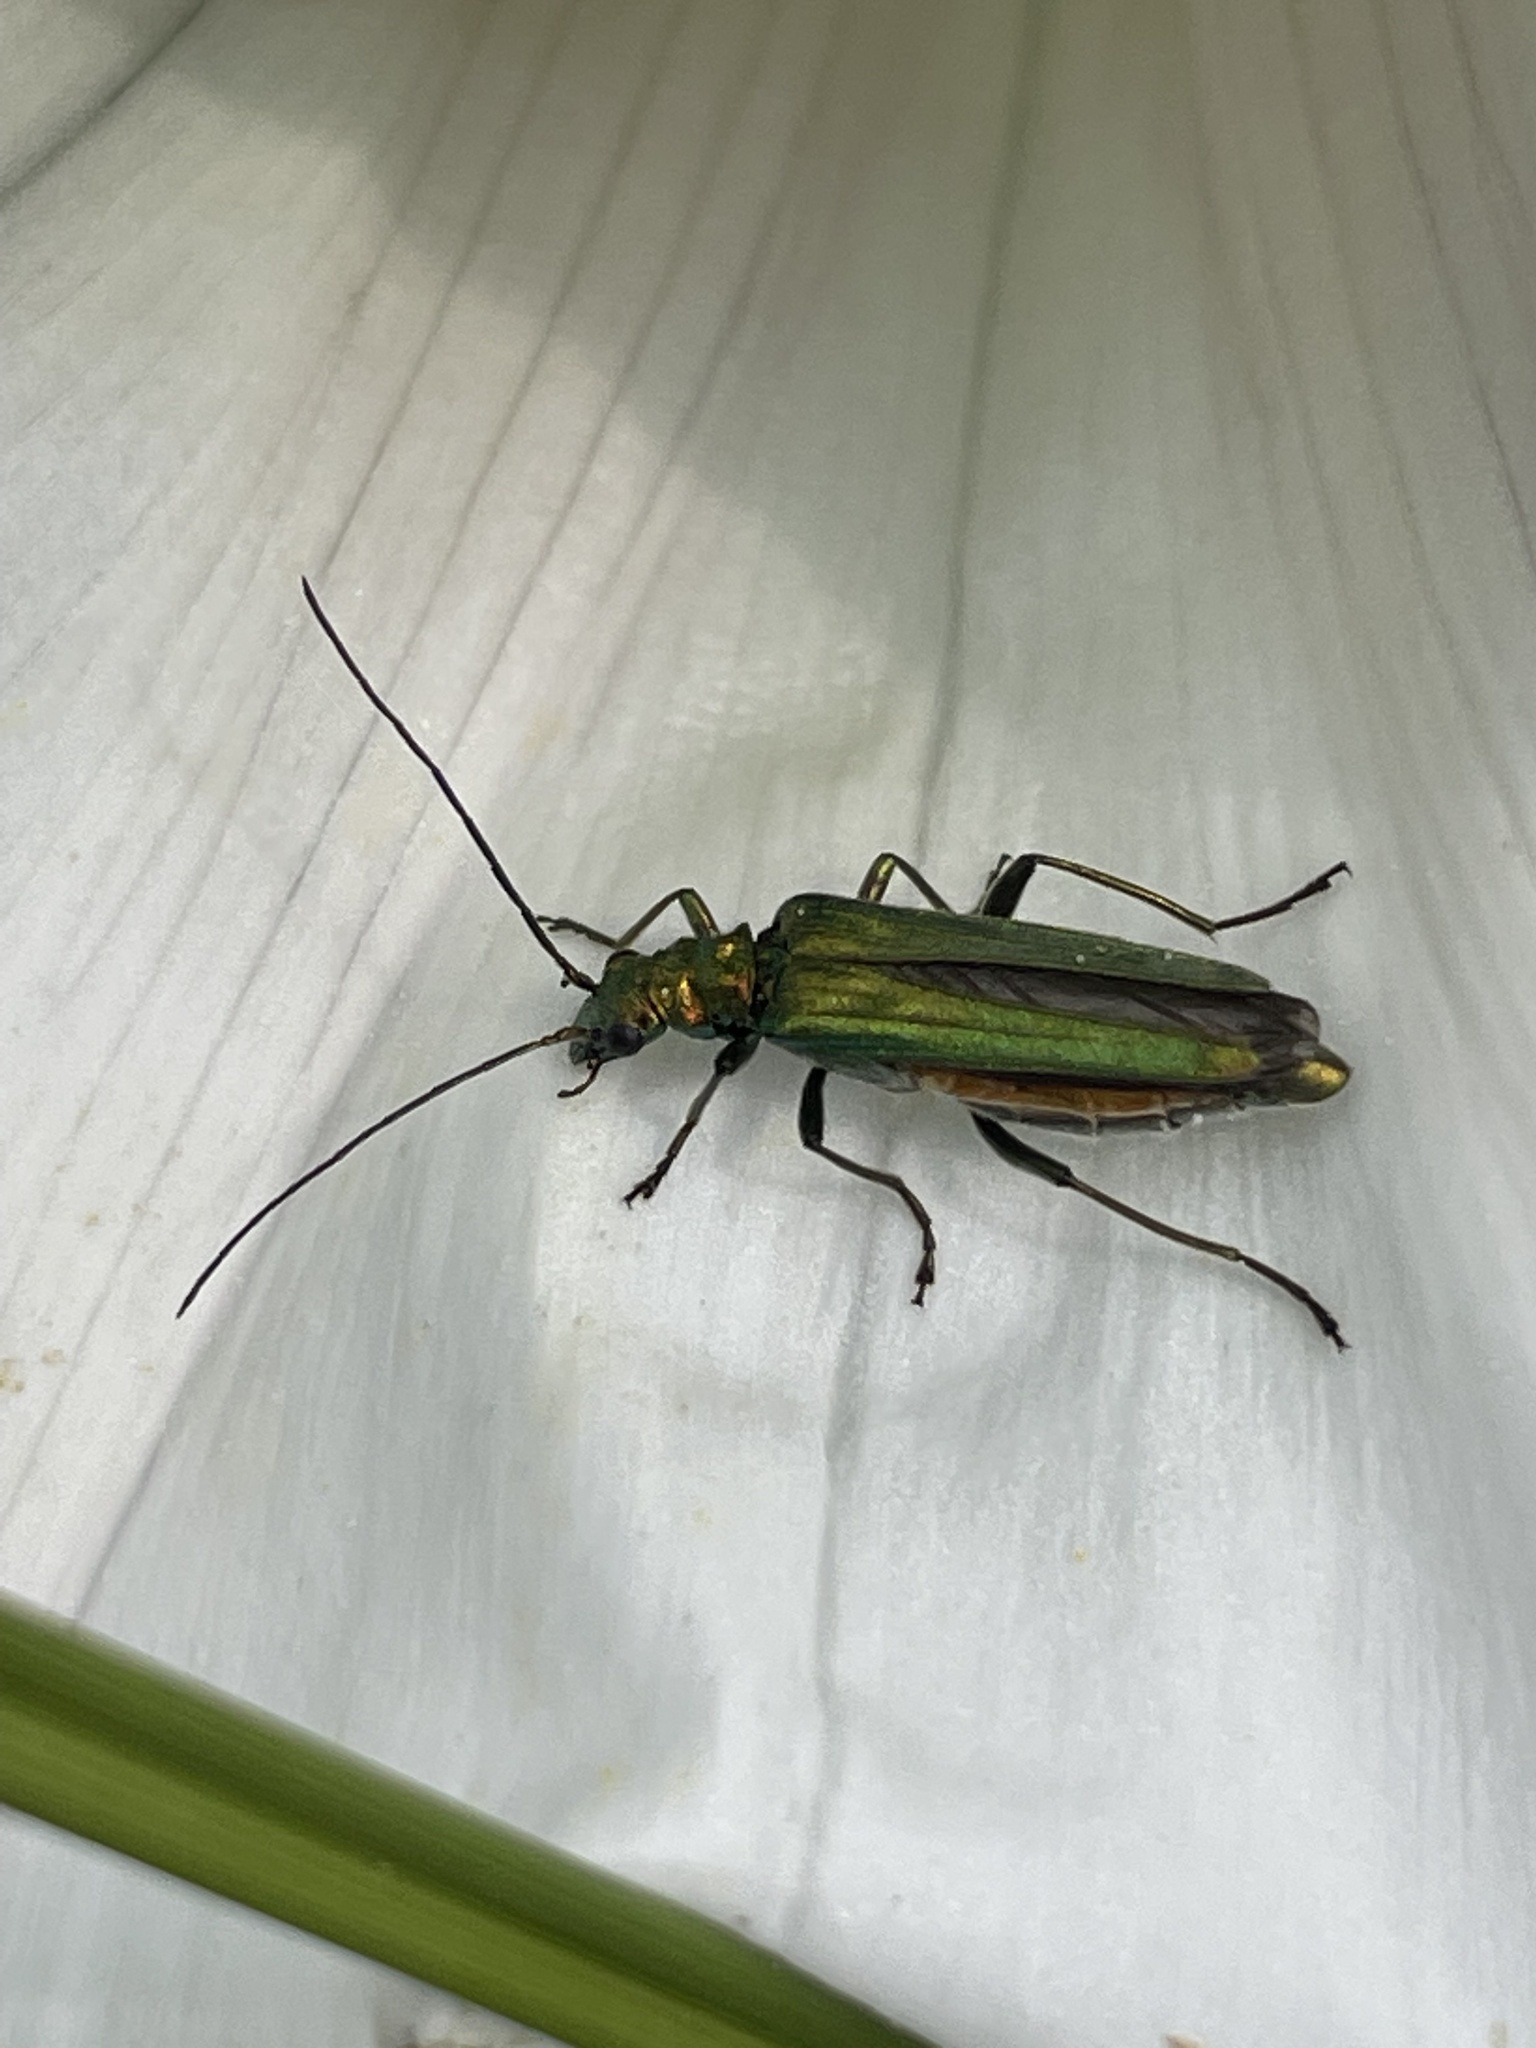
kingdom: Animalia
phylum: Arthropoda
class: Insecta
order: Coleoptera
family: Oedemeridae
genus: Oedemera
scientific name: Oedemera nobilis
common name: Swollen-thighed beetle
